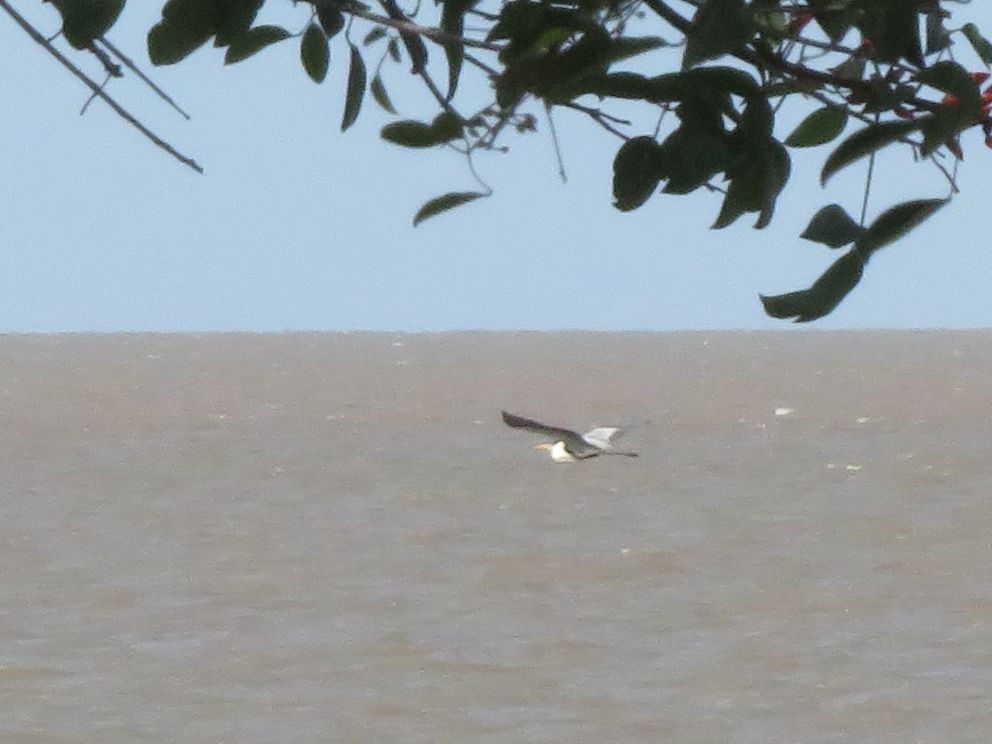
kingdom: Animalia
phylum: Chordata
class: Aves
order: Pelecaniformes
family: Ardeidae
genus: Ardea
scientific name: Ardea cocoi
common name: Cocoi heron
